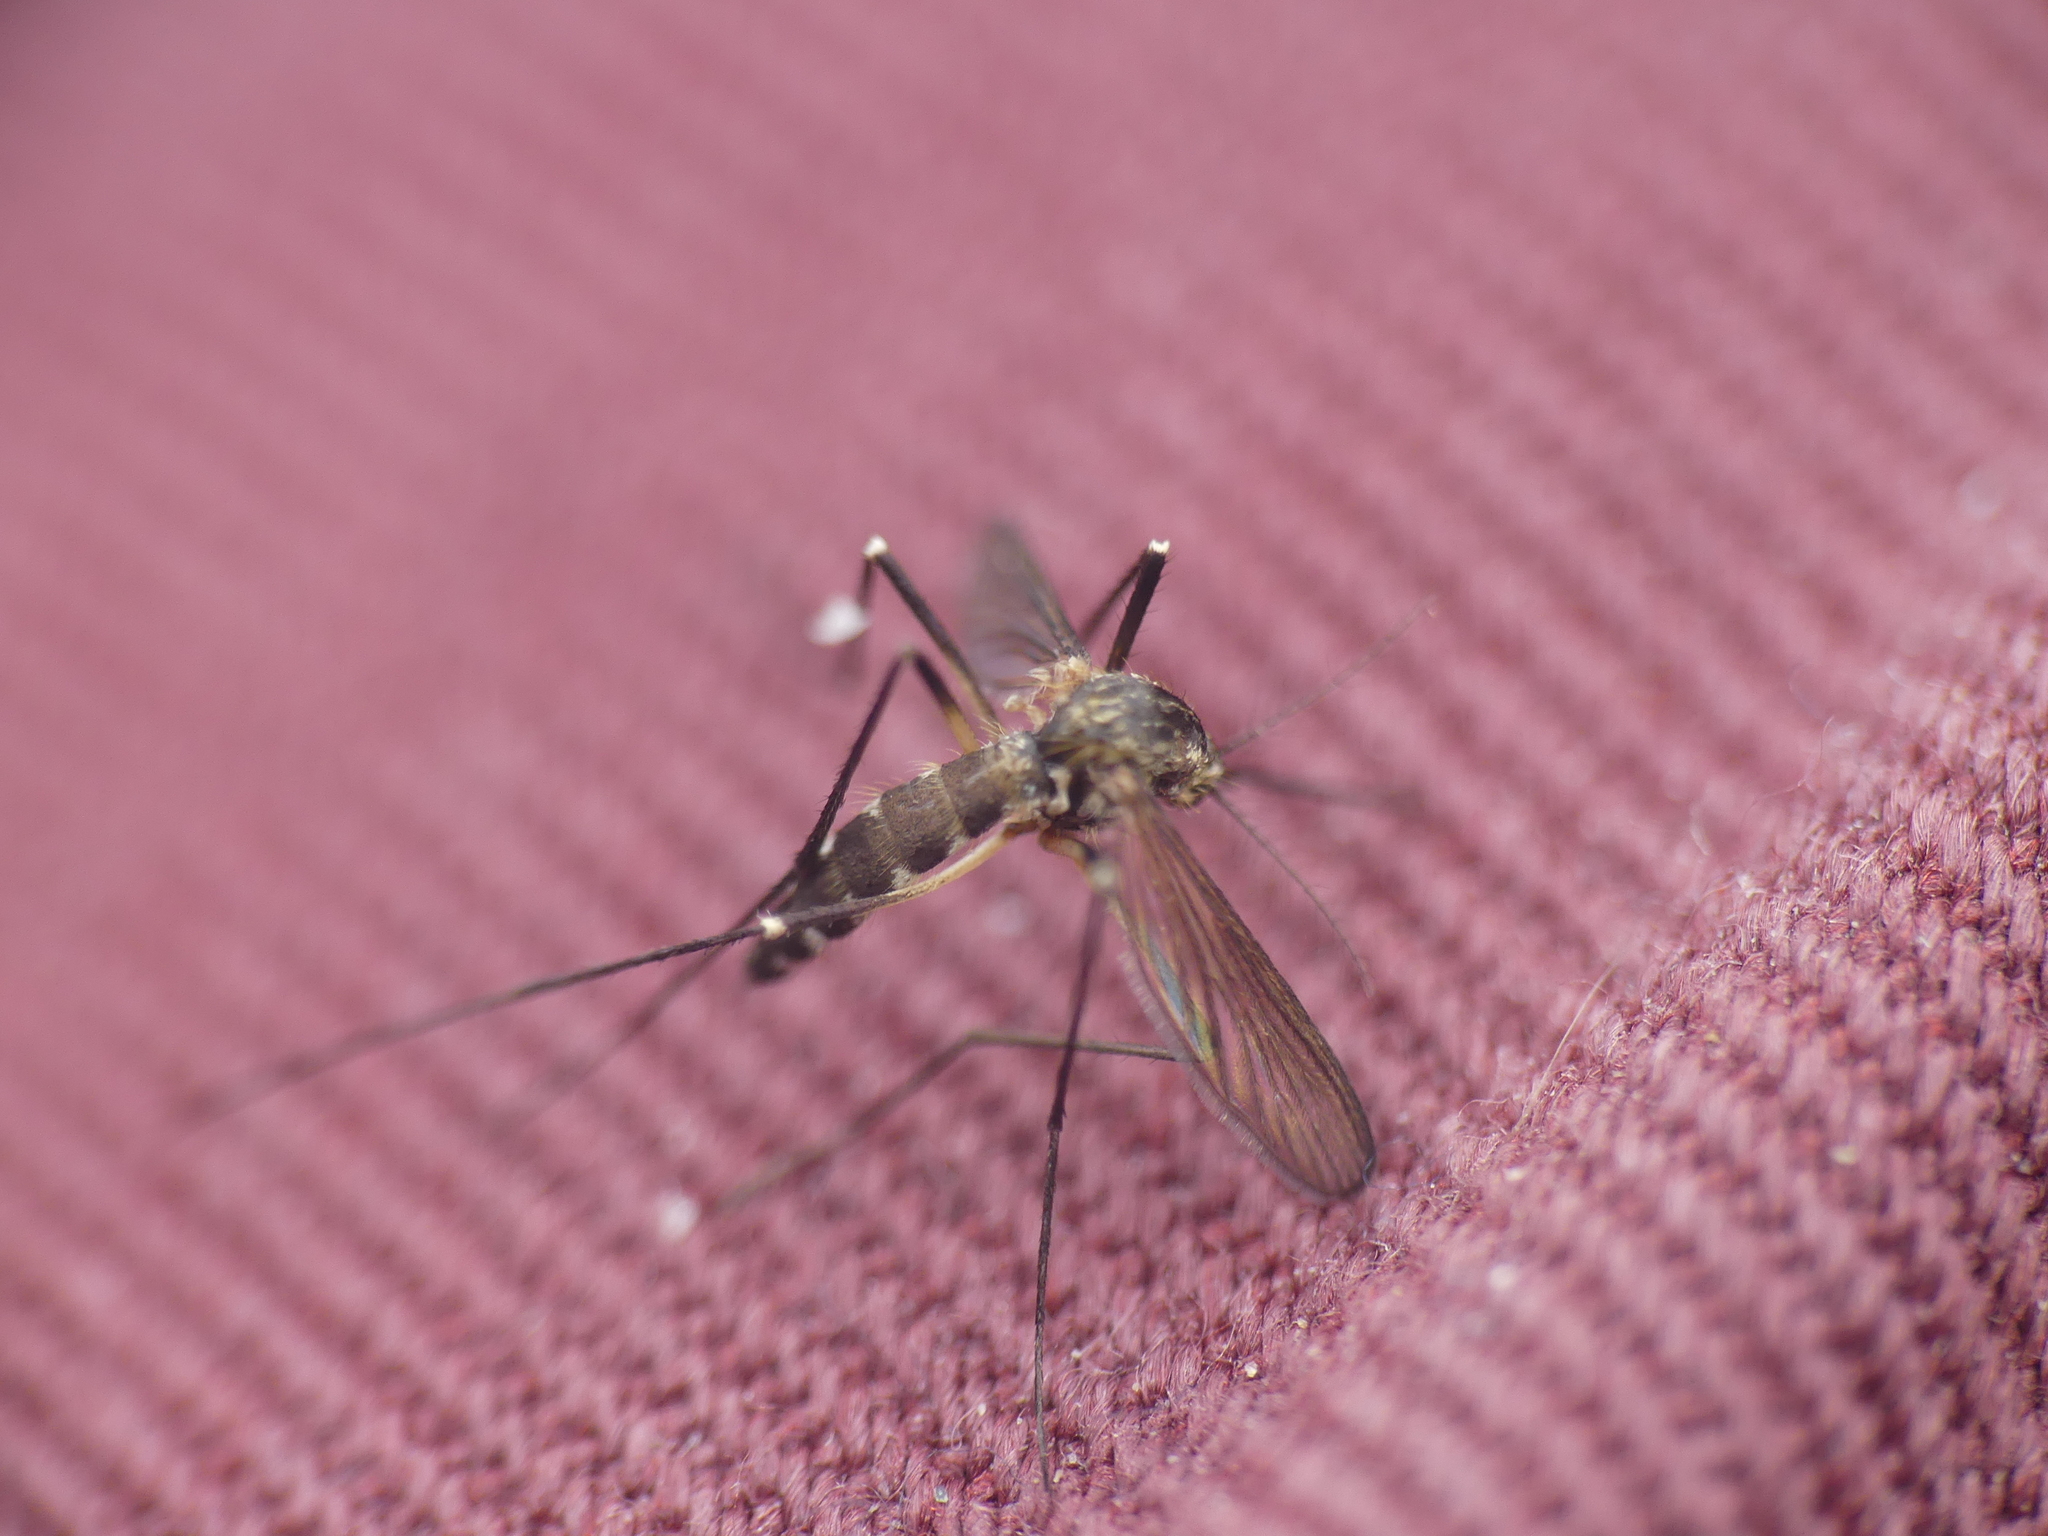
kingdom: Animalia
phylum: Arthropoda
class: Insecta
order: Diptera
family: Culicidae
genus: Aedes
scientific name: Aedes geniculatus
